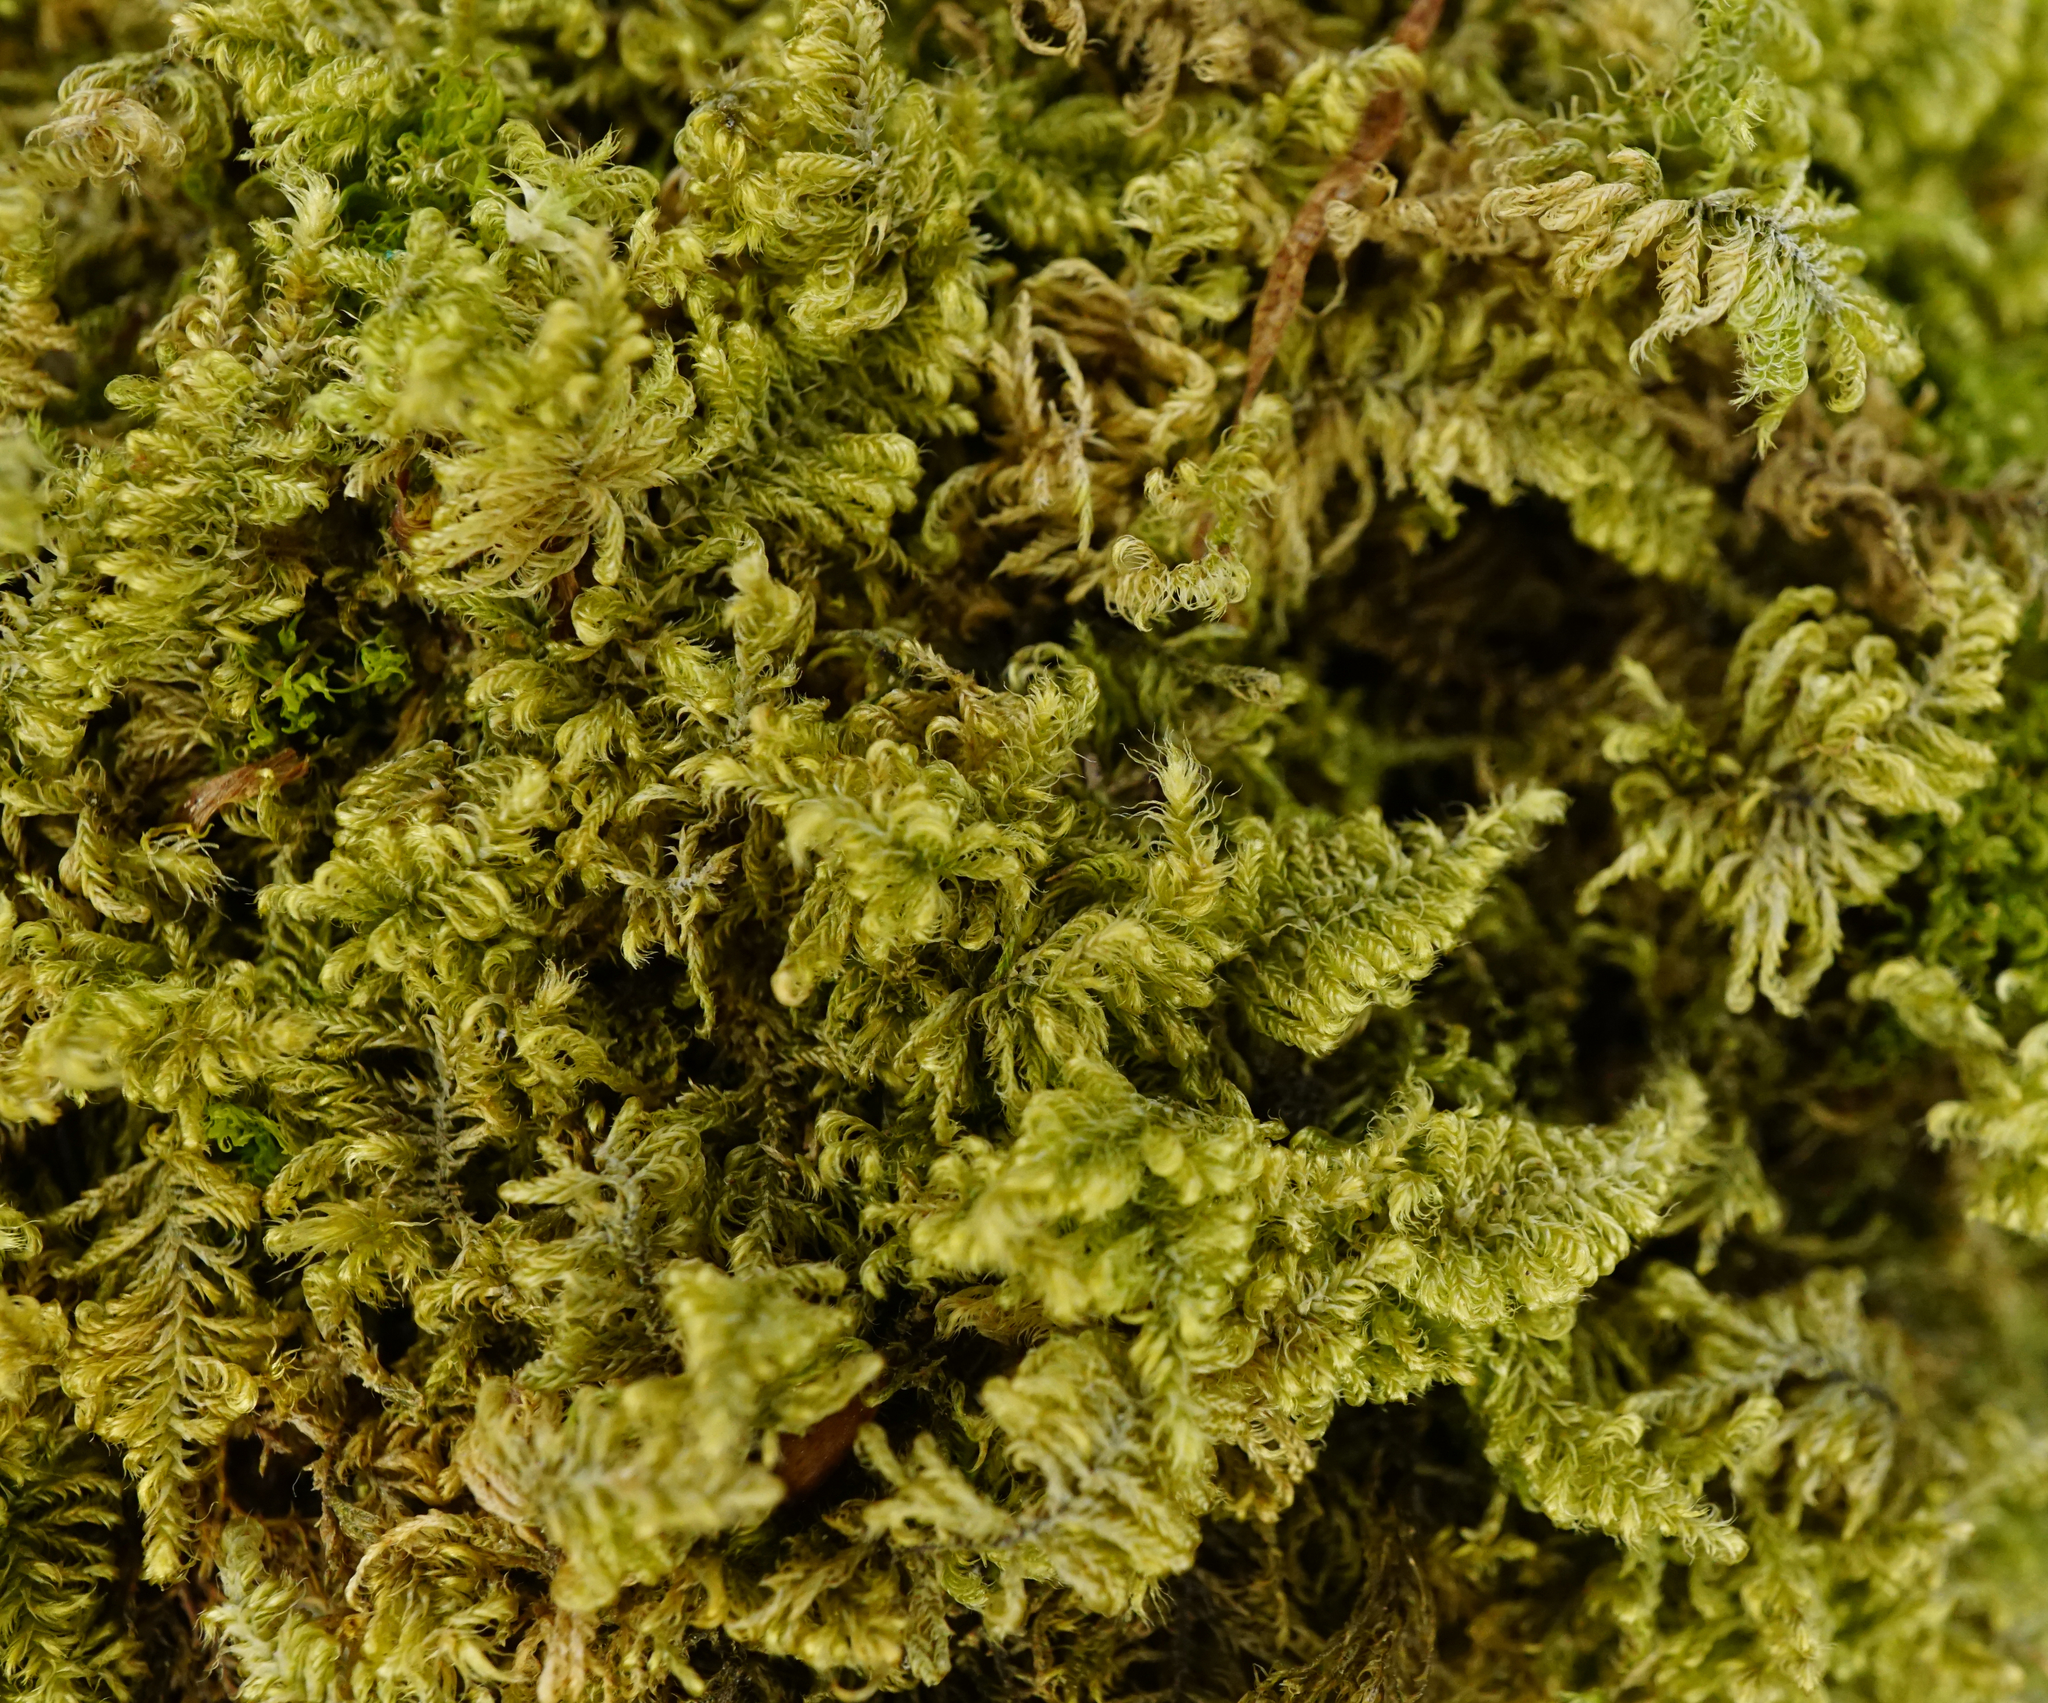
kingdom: Plantae
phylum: Bryophyta
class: Bryopsida
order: Hypnales
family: Myuriaceae
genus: Ctenidium
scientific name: Ctenidium molluscum
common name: Chalk comb-moss
